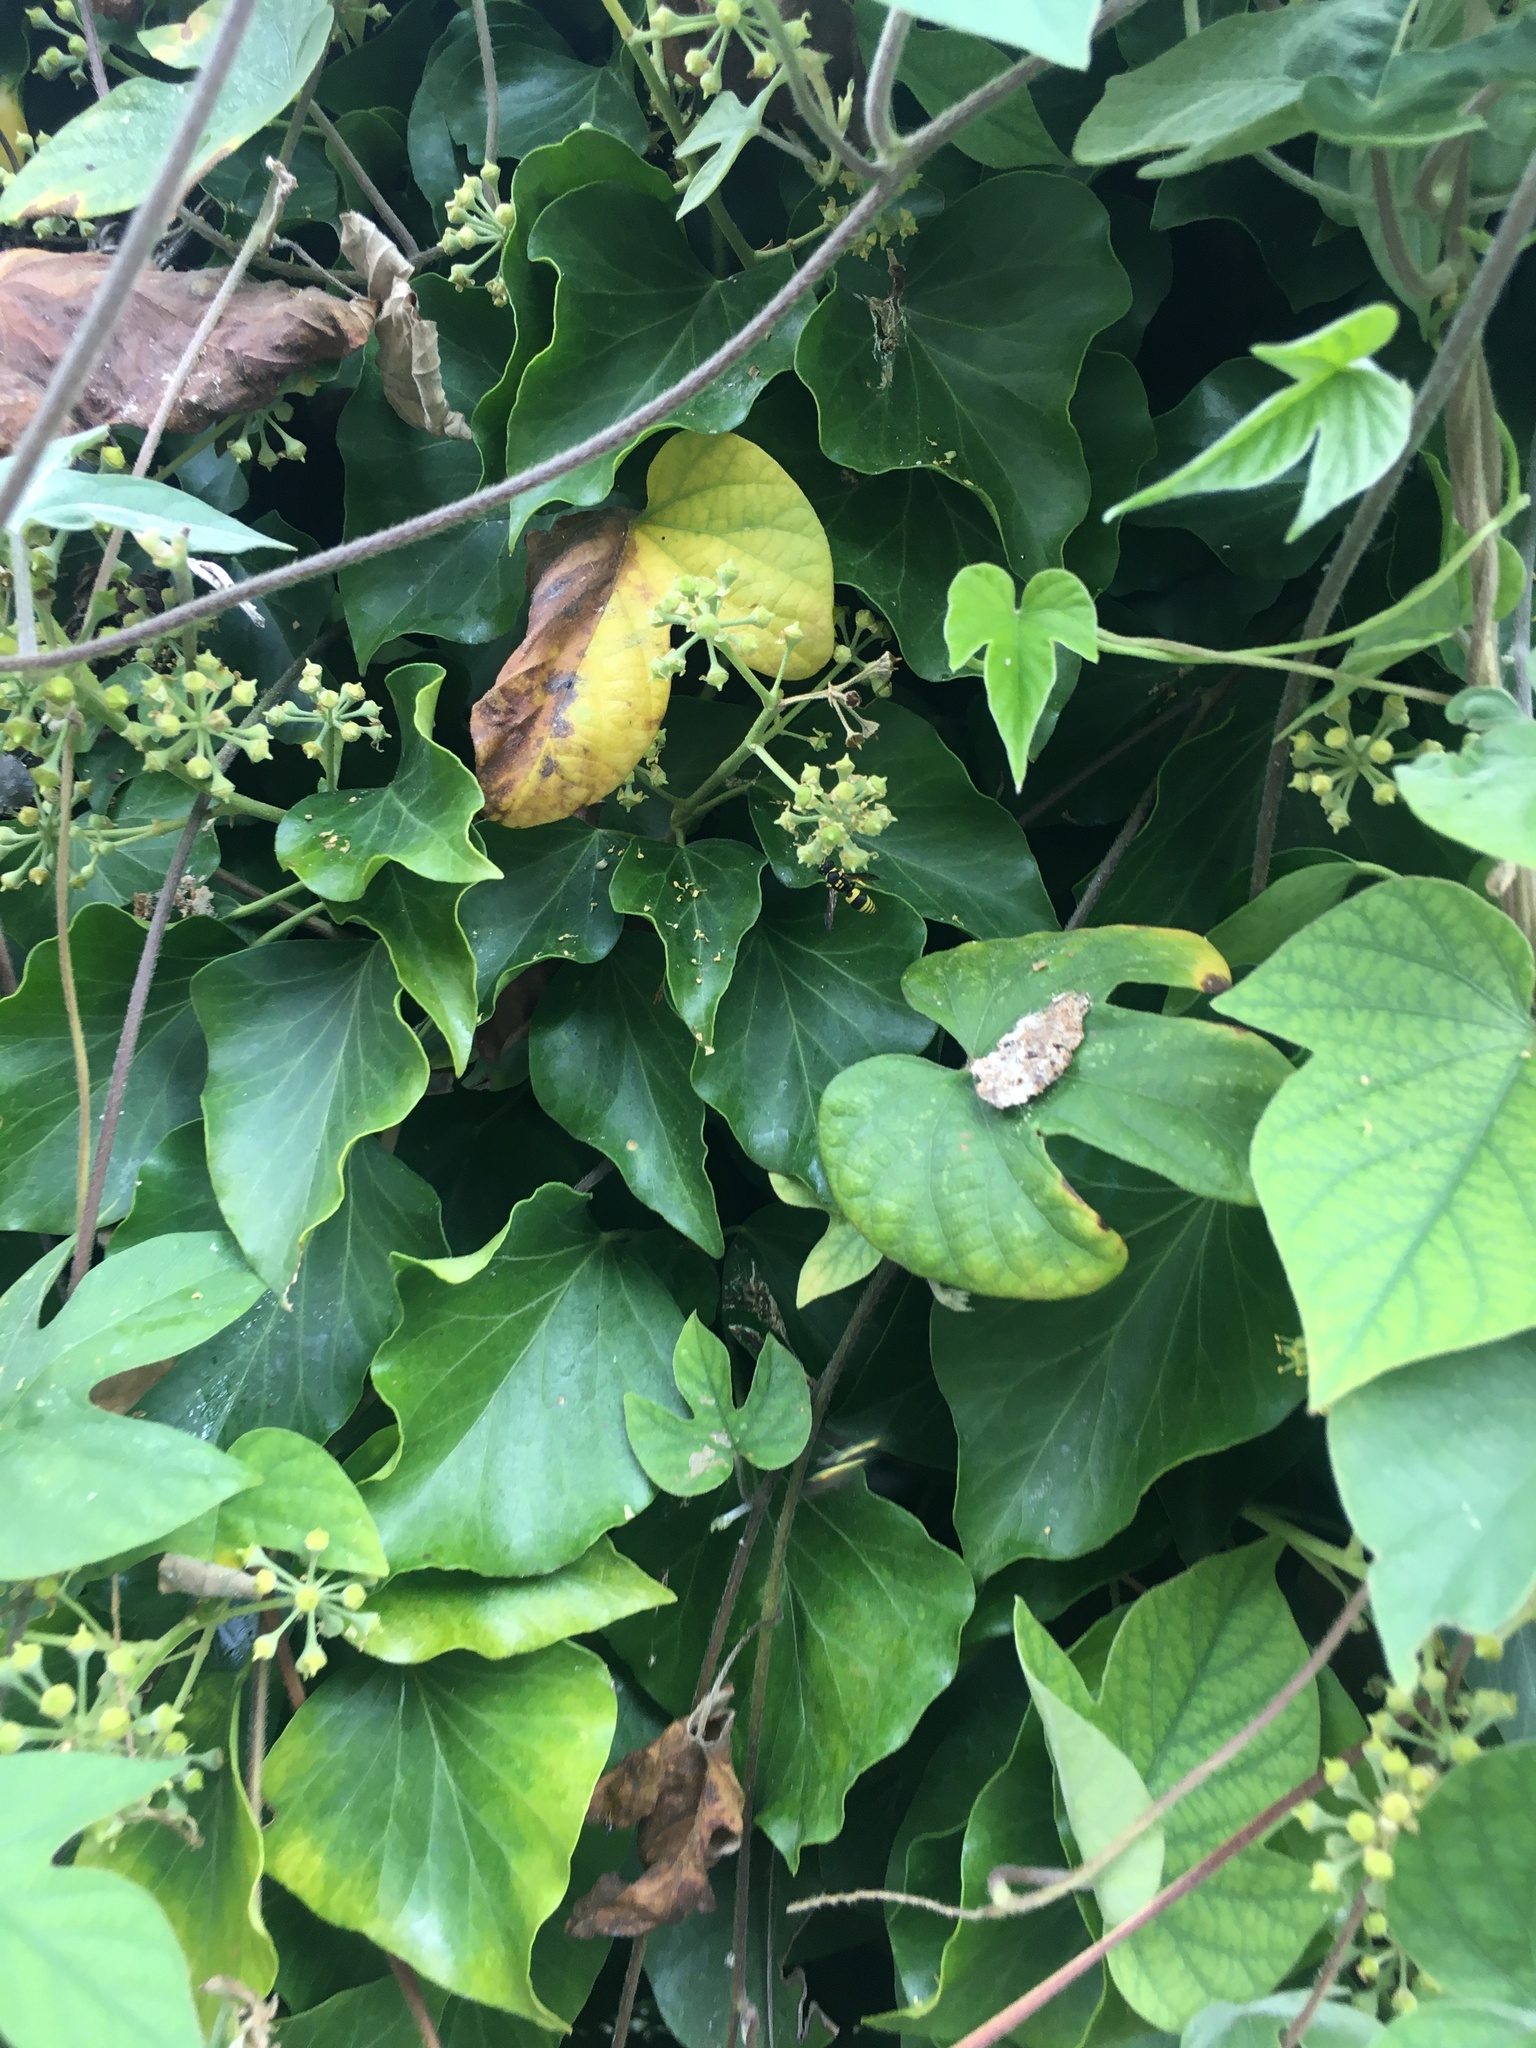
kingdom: Animalia
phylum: Arthropoda
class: Insecta
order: Hymenoptera
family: Vespidae
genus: Vespa
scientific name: Vespa velutina
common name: Asian hornet
